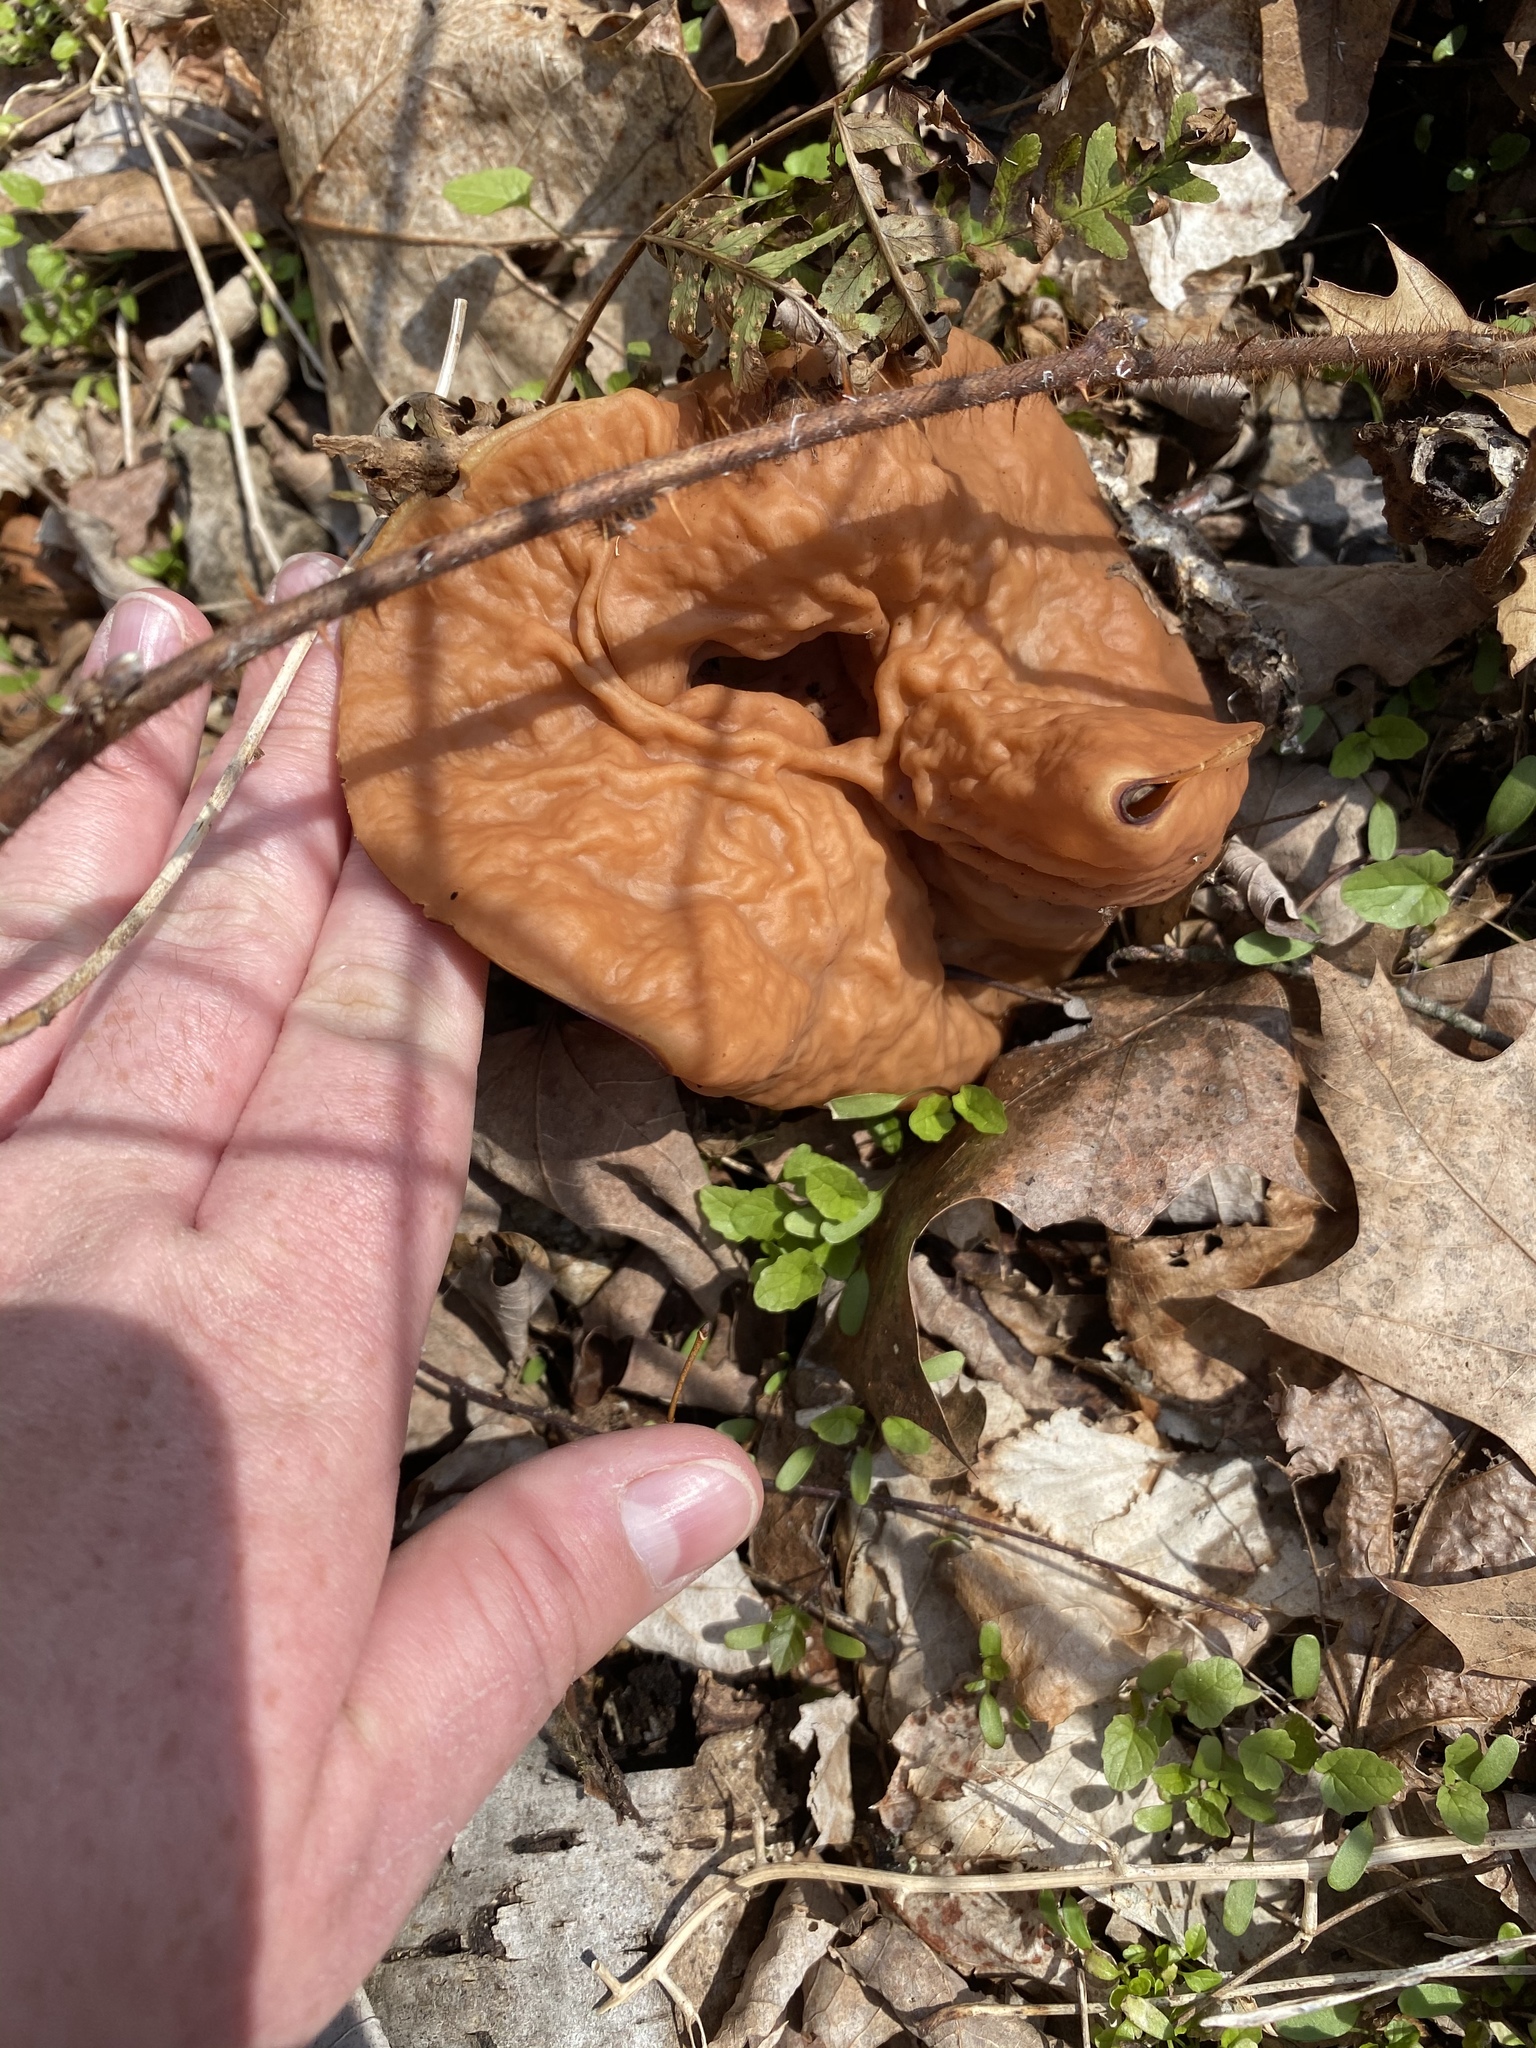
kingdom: Fungi
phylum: Ascomycota
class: Pezizomycetes
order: Pezizales
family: Discinaceae
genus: Discina
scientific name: Discina brunnea
